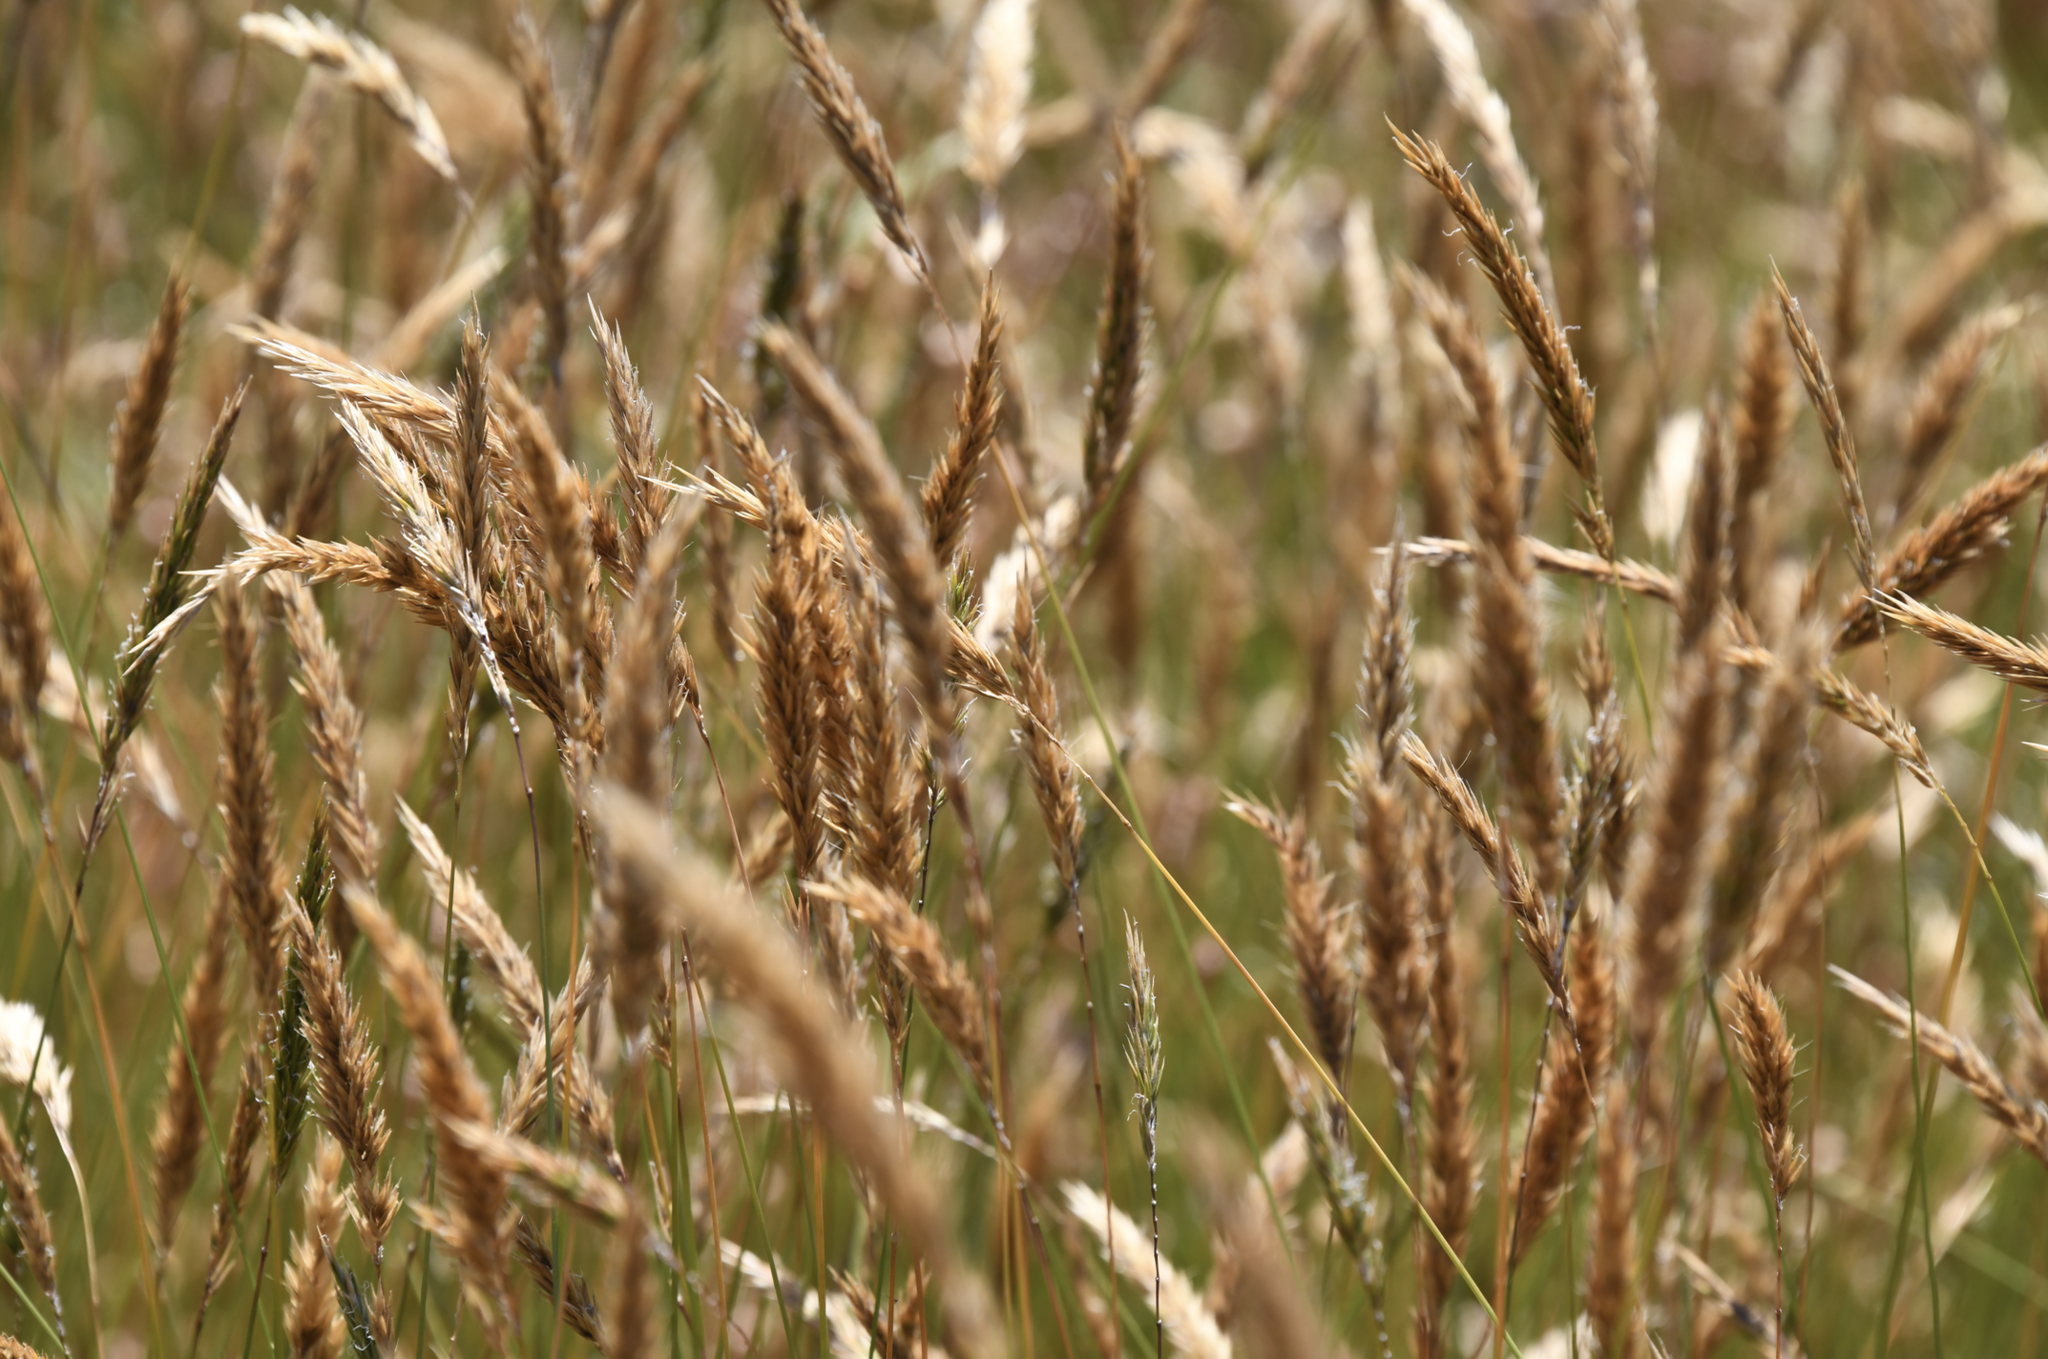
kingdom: Plantae
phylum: Tracheophyta
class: Liliopsida
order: Poales
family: Poaceae
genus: Anthoxanthum
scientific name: Anthoxanthum odoratum
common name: Sweet vernalgrass
